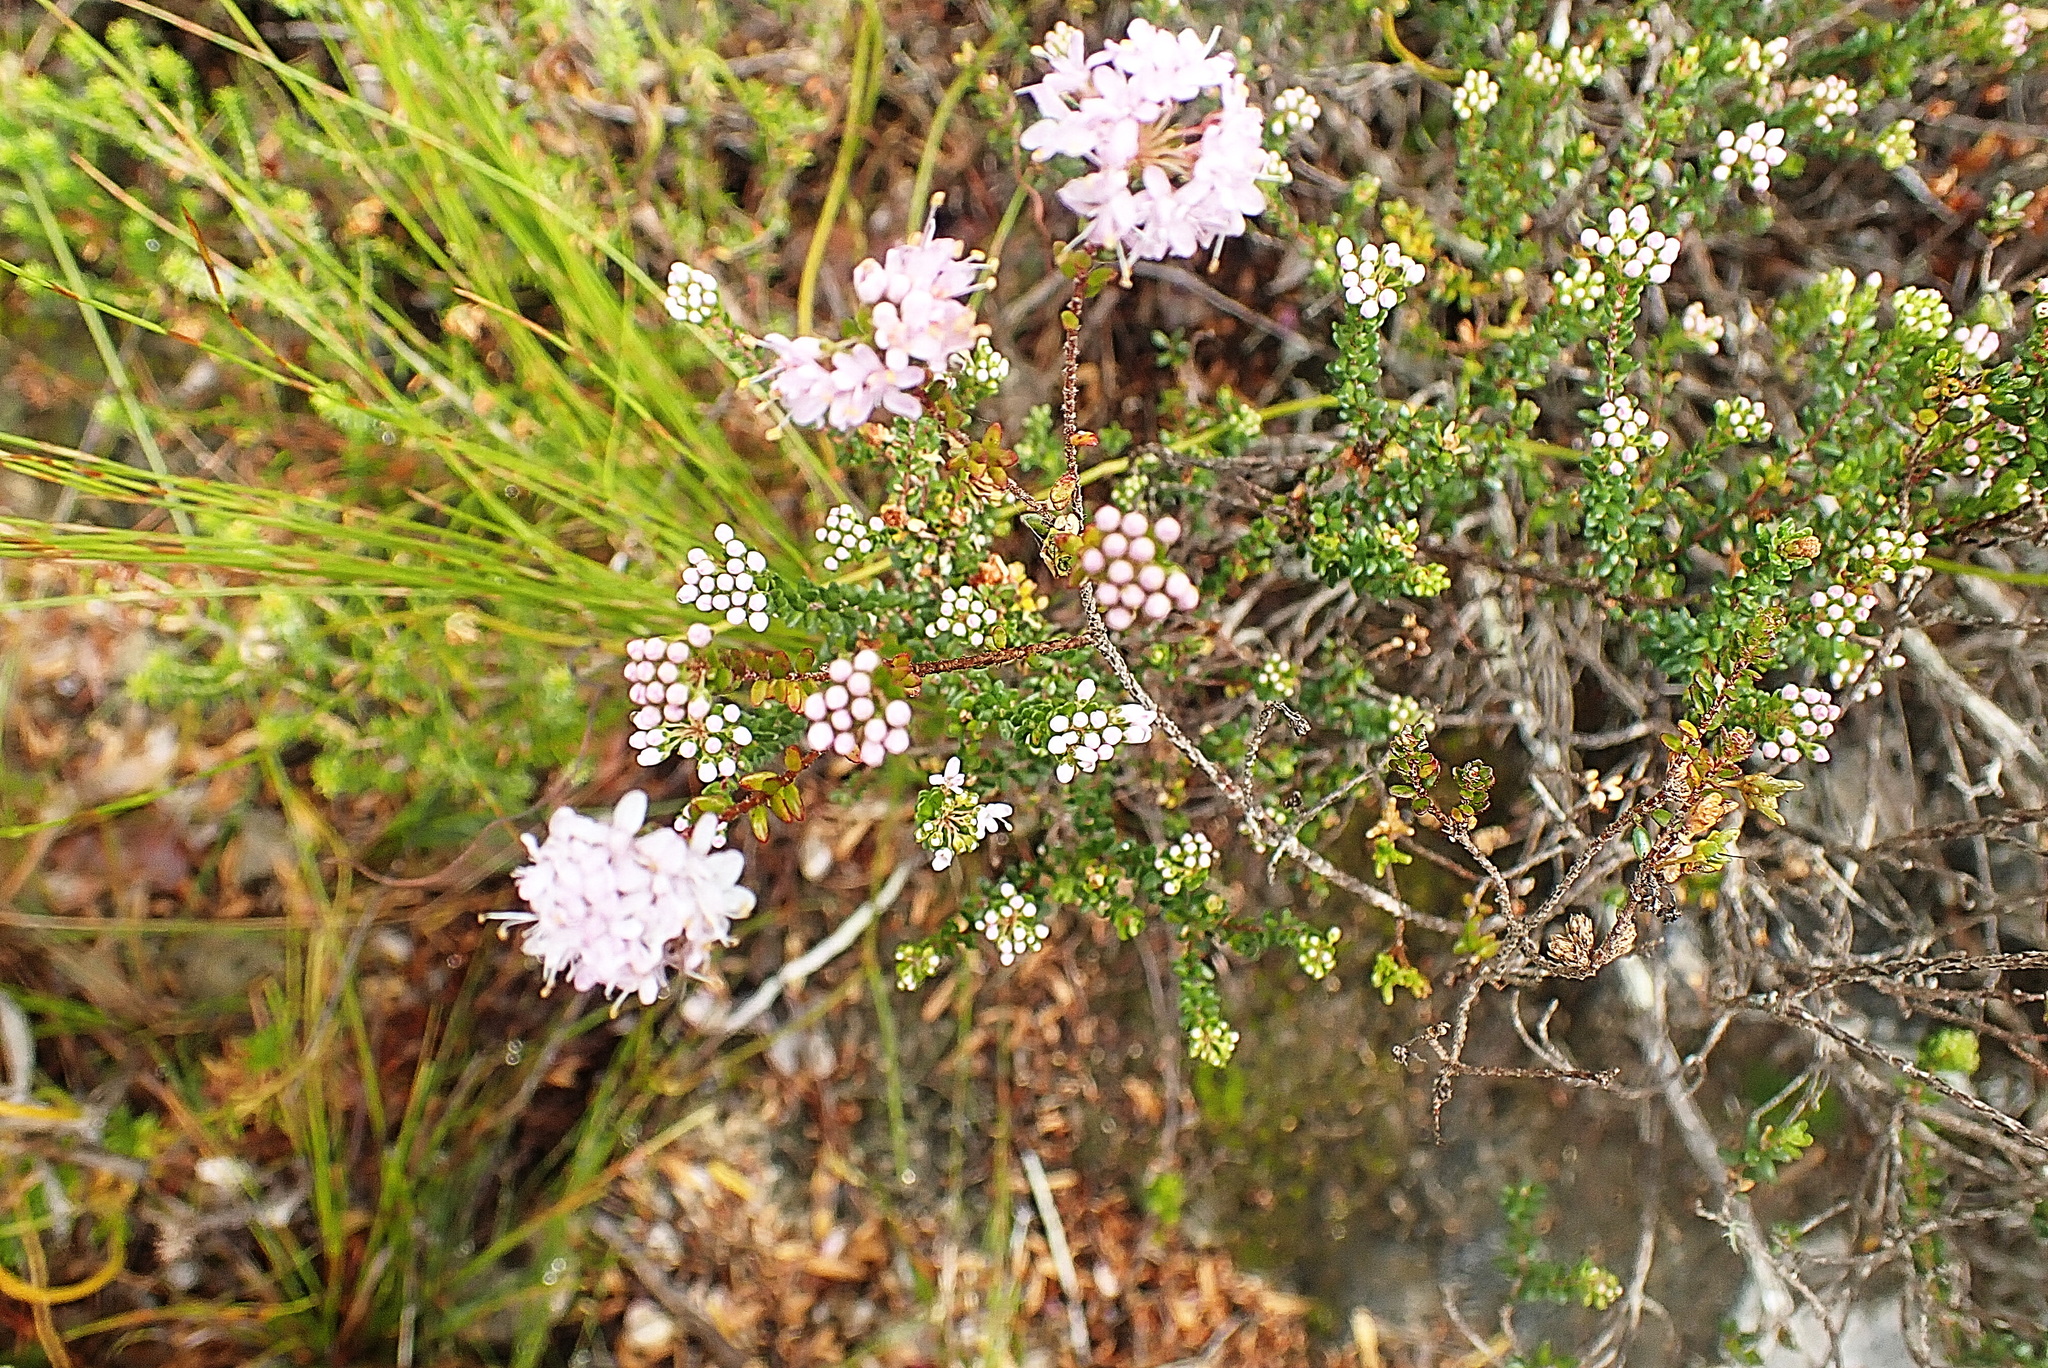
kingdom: Plantae
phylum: Tracheophyta
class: Magnoliopsida
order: Sapindales
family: Rutaceae
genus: Agathosma
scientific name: Agathosma capensis
